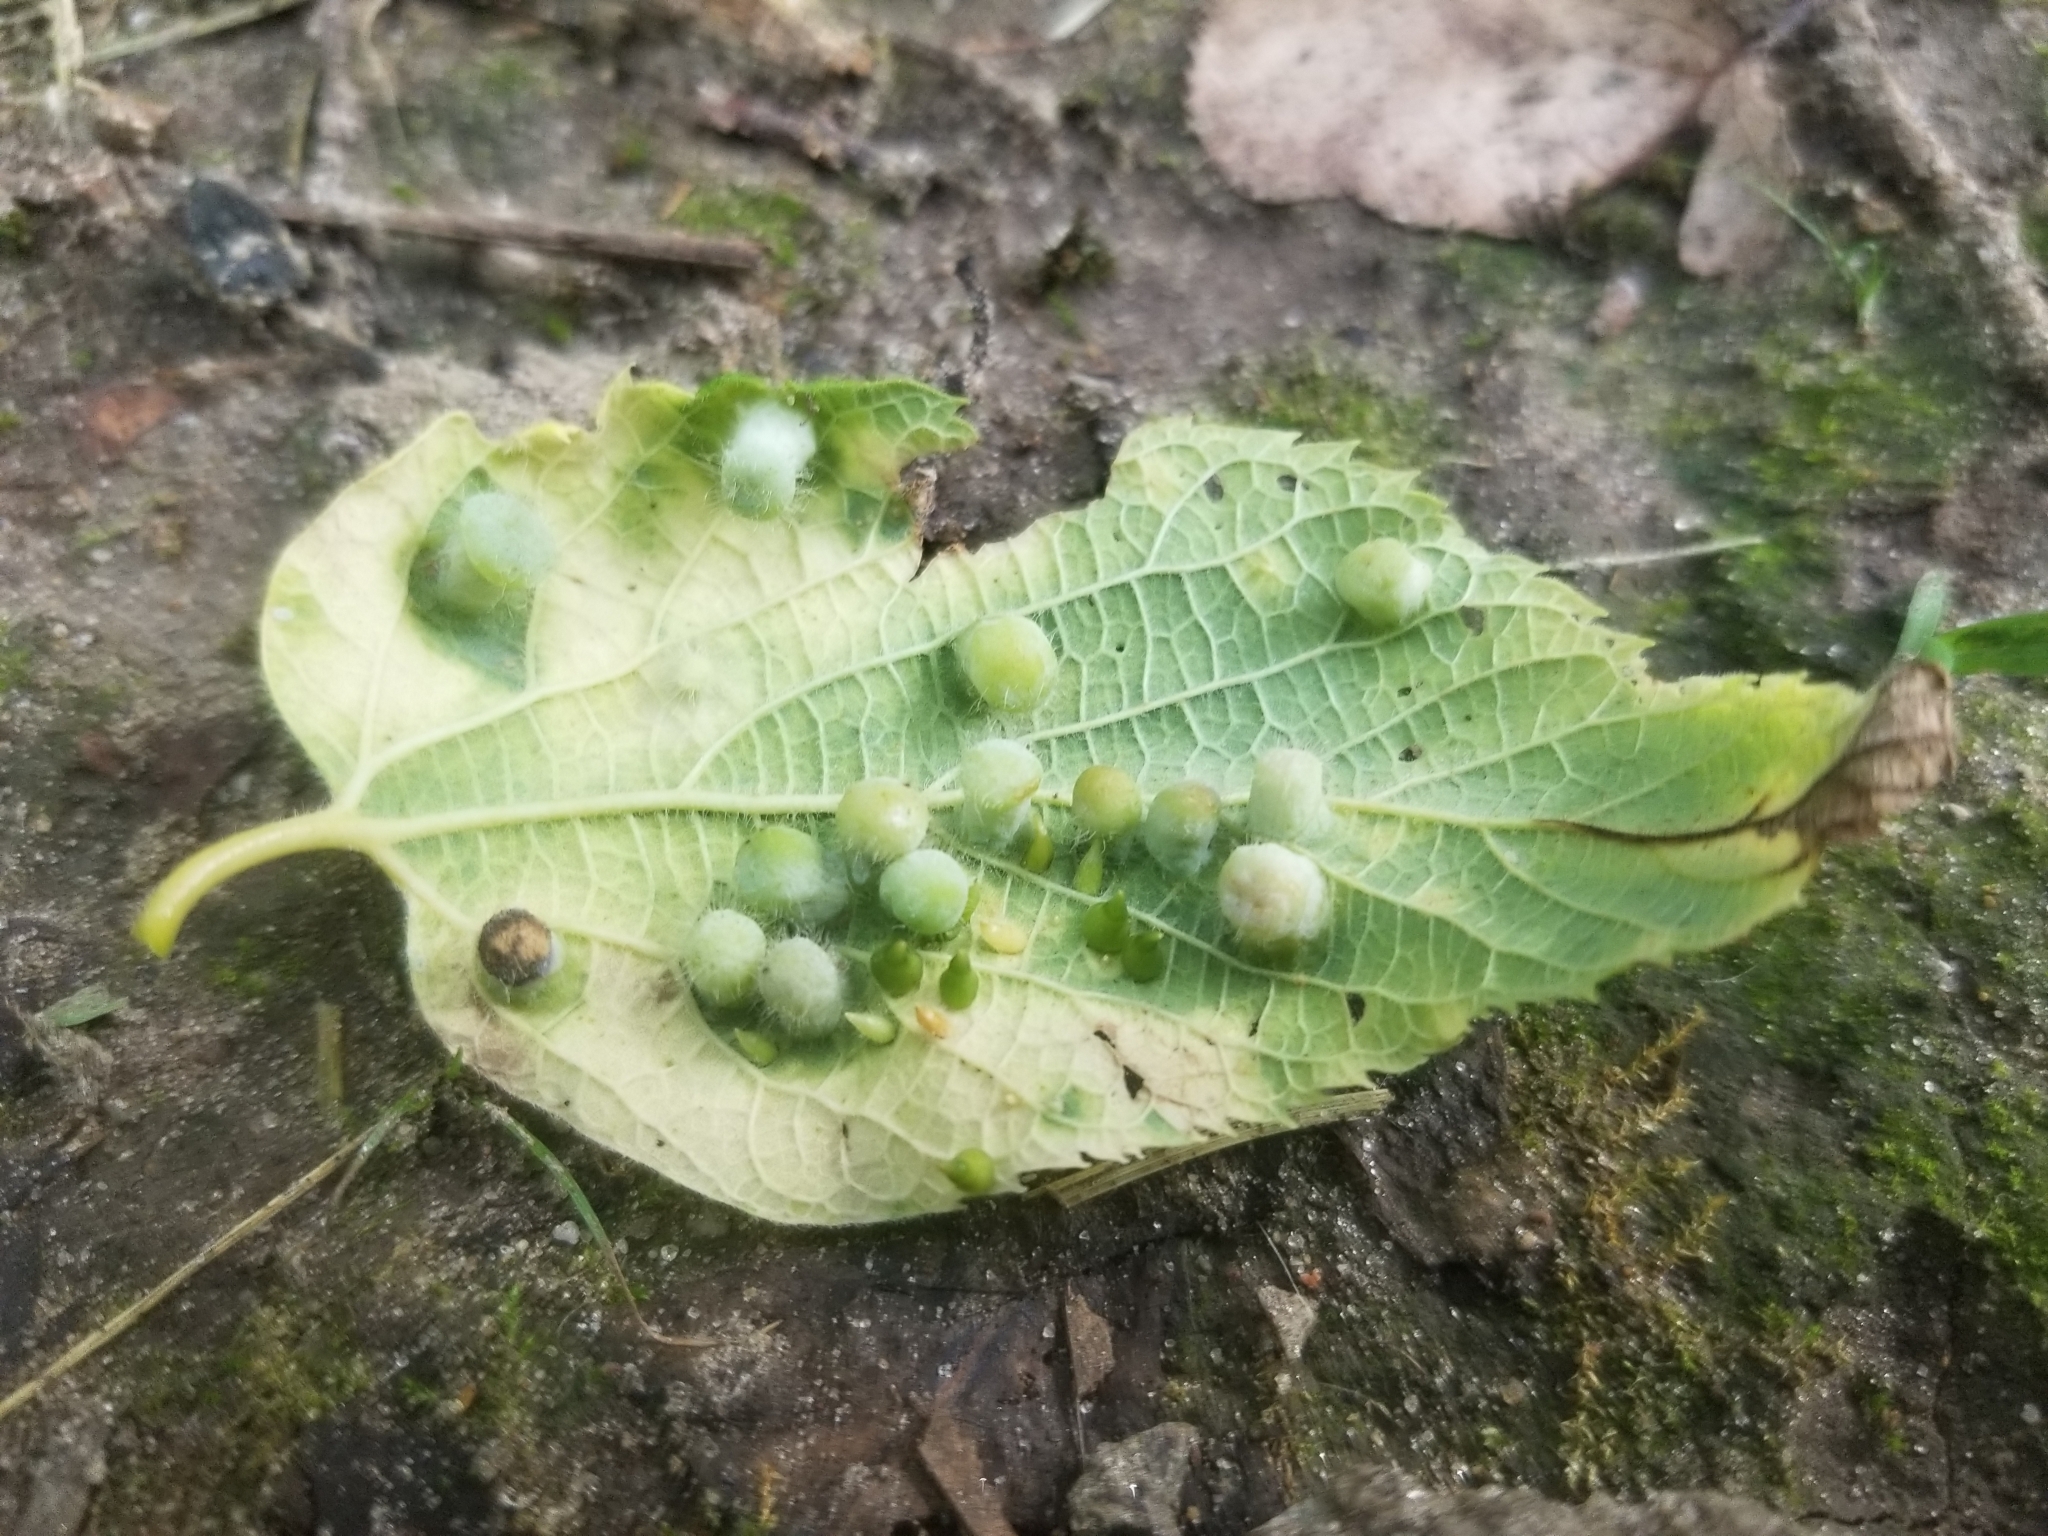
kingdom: Animalia
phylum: Arthropoda
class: Insecta
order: Hemiptera
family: Aphalaridae
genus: Pachypsylla
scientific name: Pachypsylla celtidismamma
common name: Hackberry nipplegall psyllid
